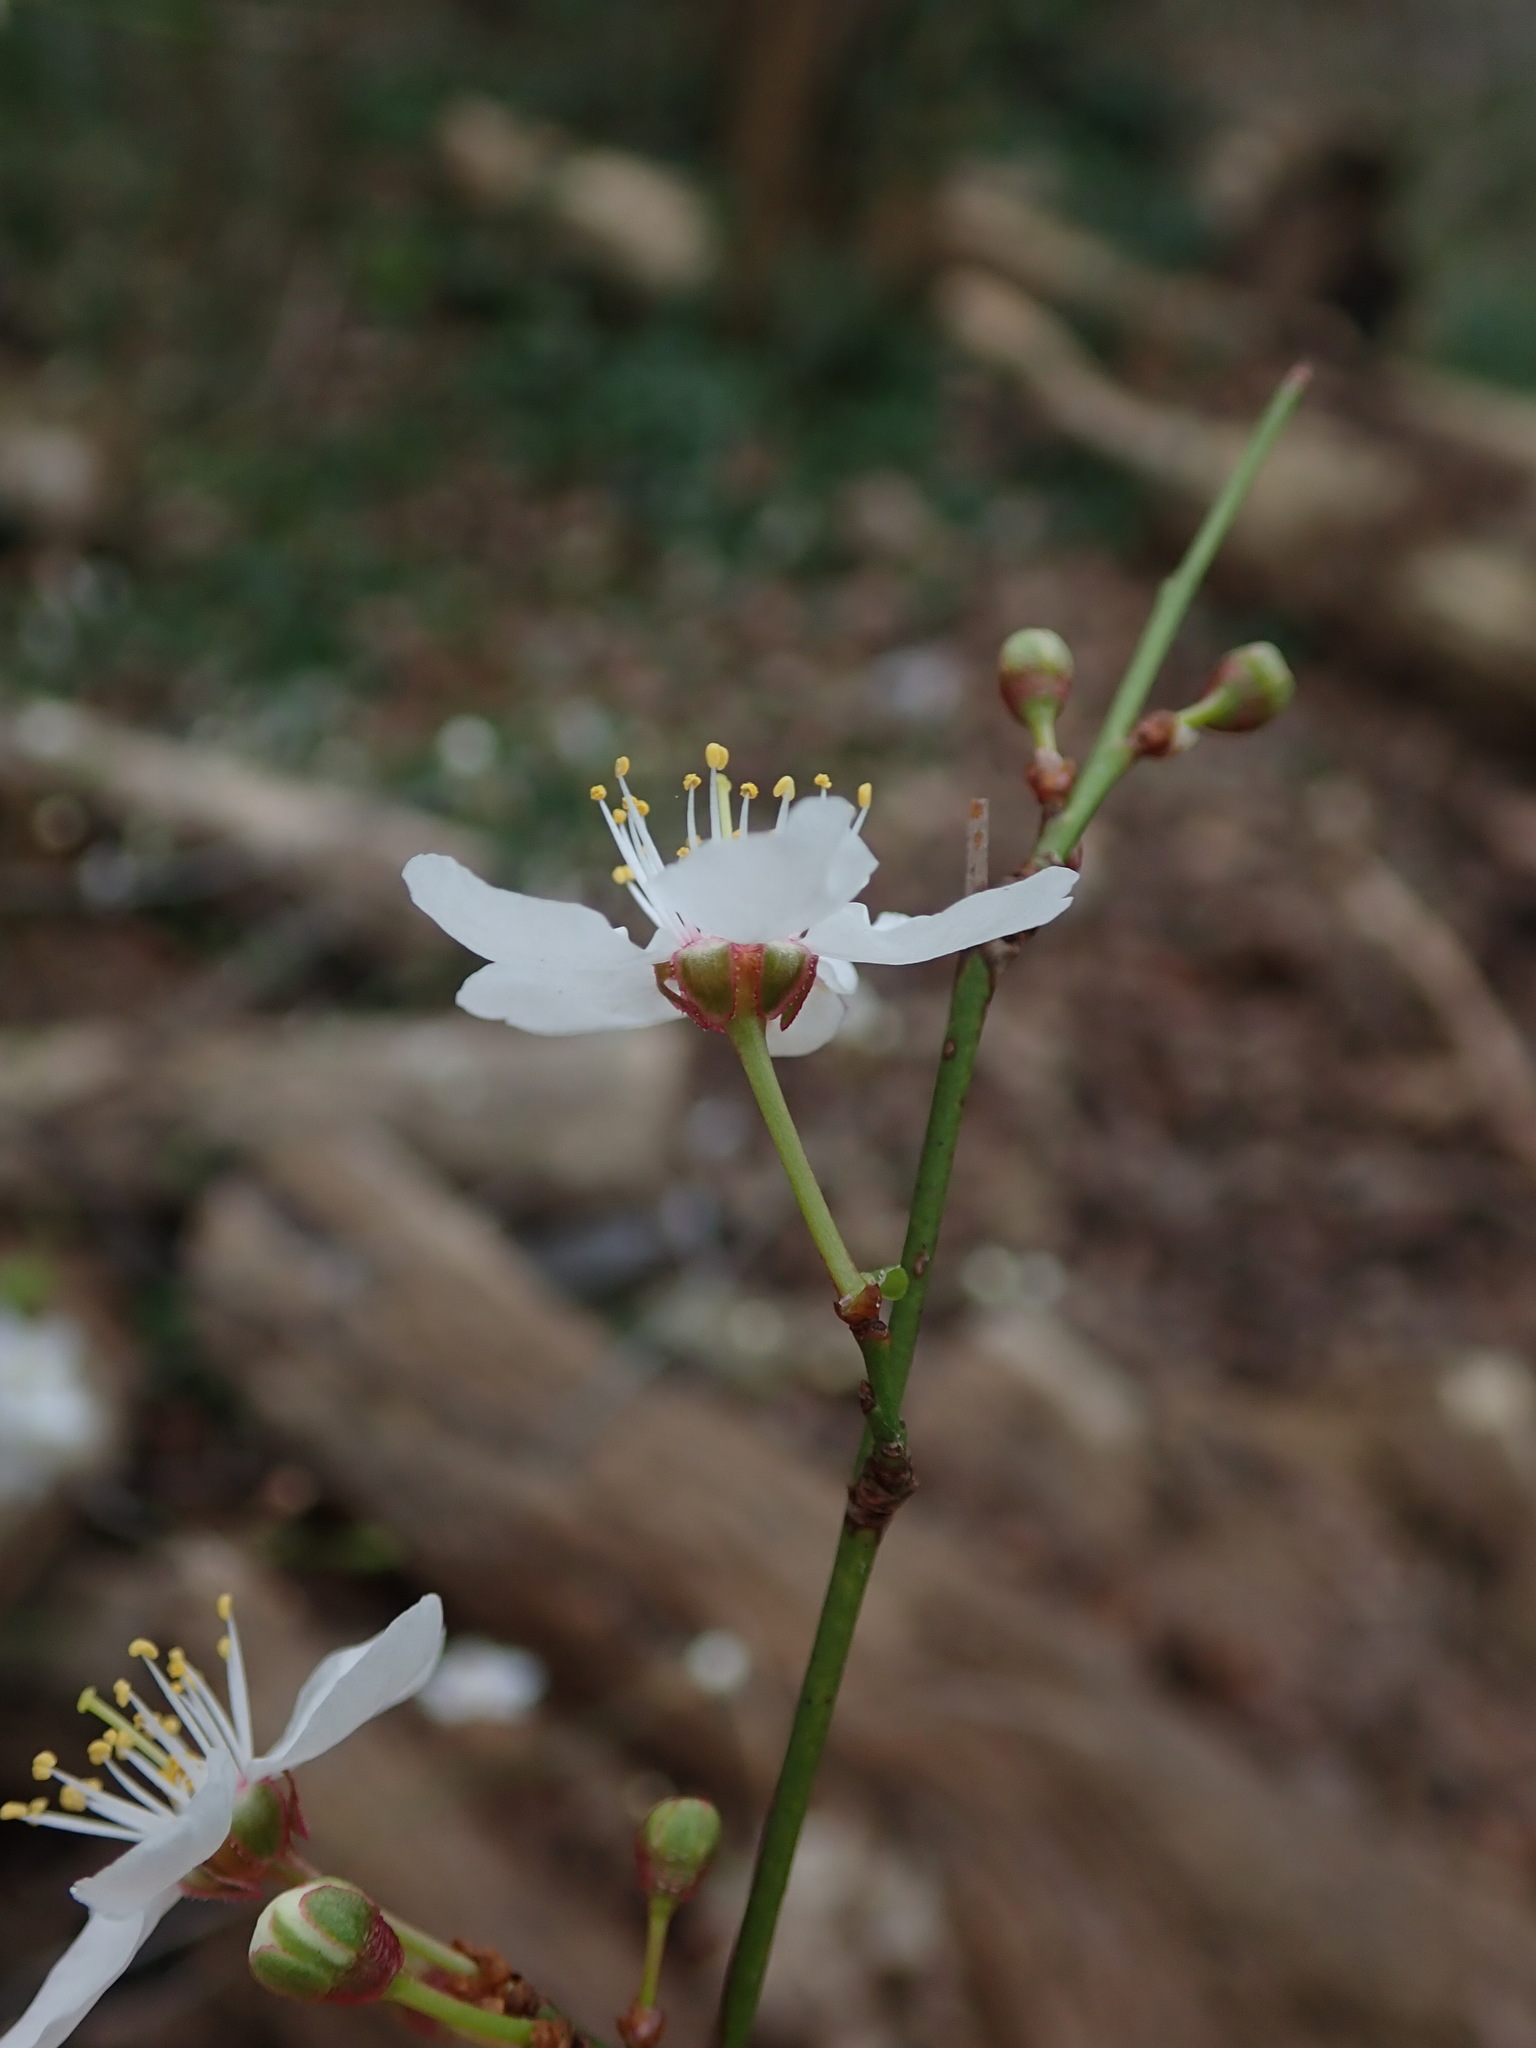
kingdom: Plantae
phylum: Tracheophyta
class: Magnoliopsida
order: Rosales
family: Rosaceae
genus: Prunus
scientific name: Prunus cerasifera
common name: Cherry plum
